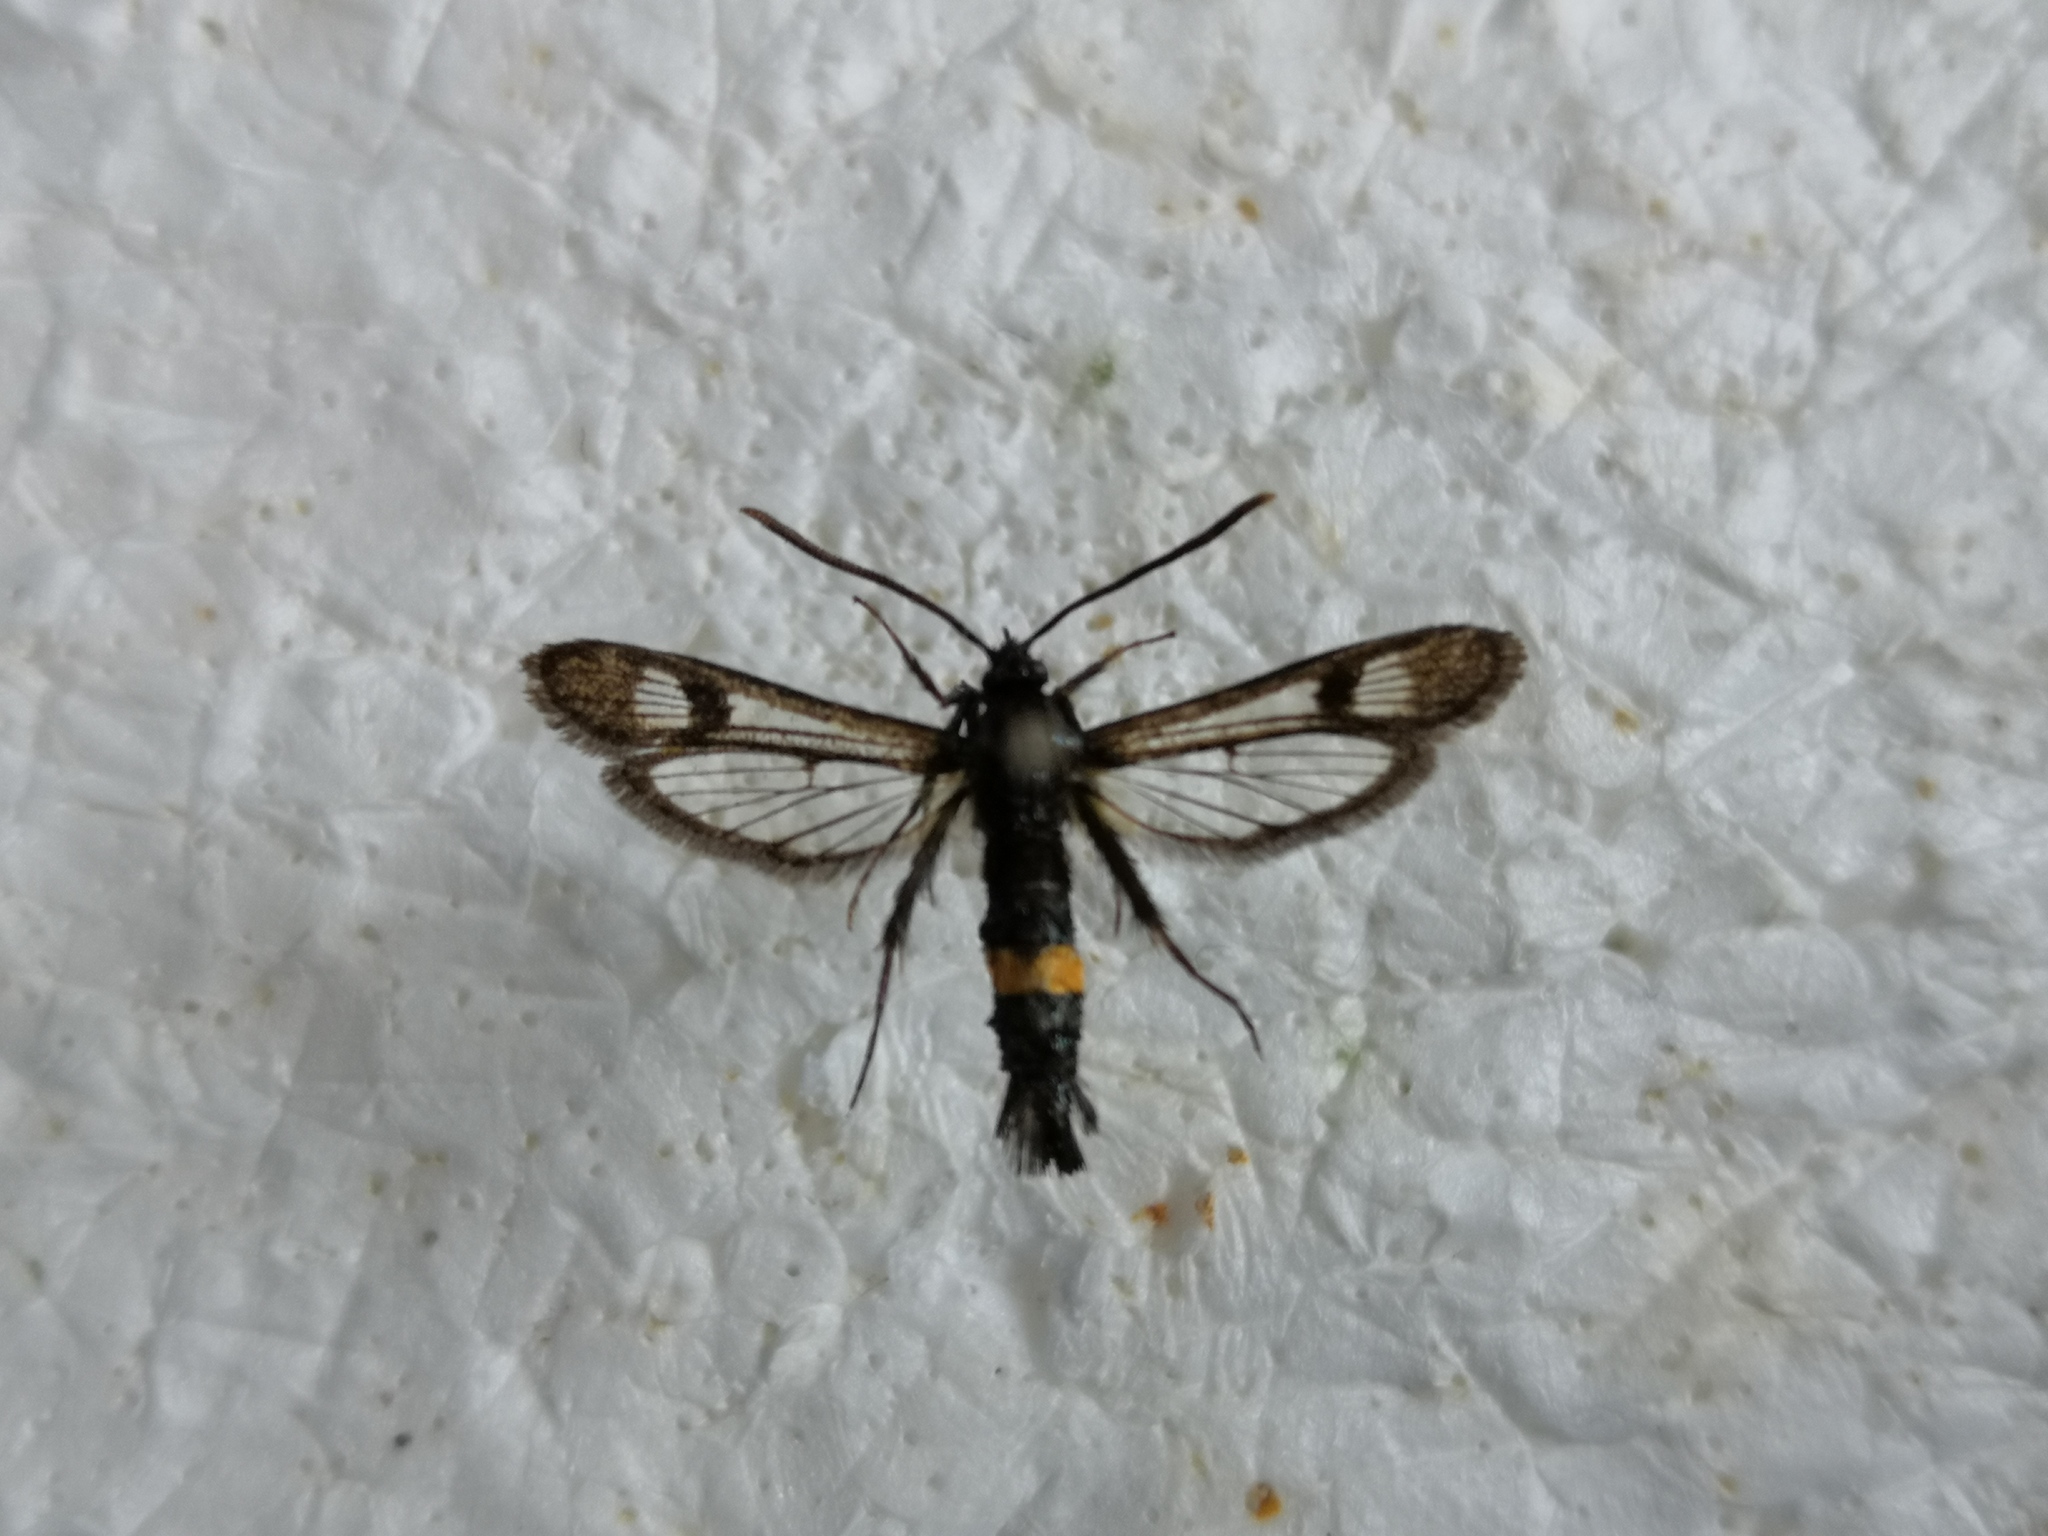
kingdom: Animalia
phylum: Arthropoda
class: Insecta
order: Lepidoptera
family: Sesiidae
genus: Synanthedon
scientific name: Synanthedon soffneri
